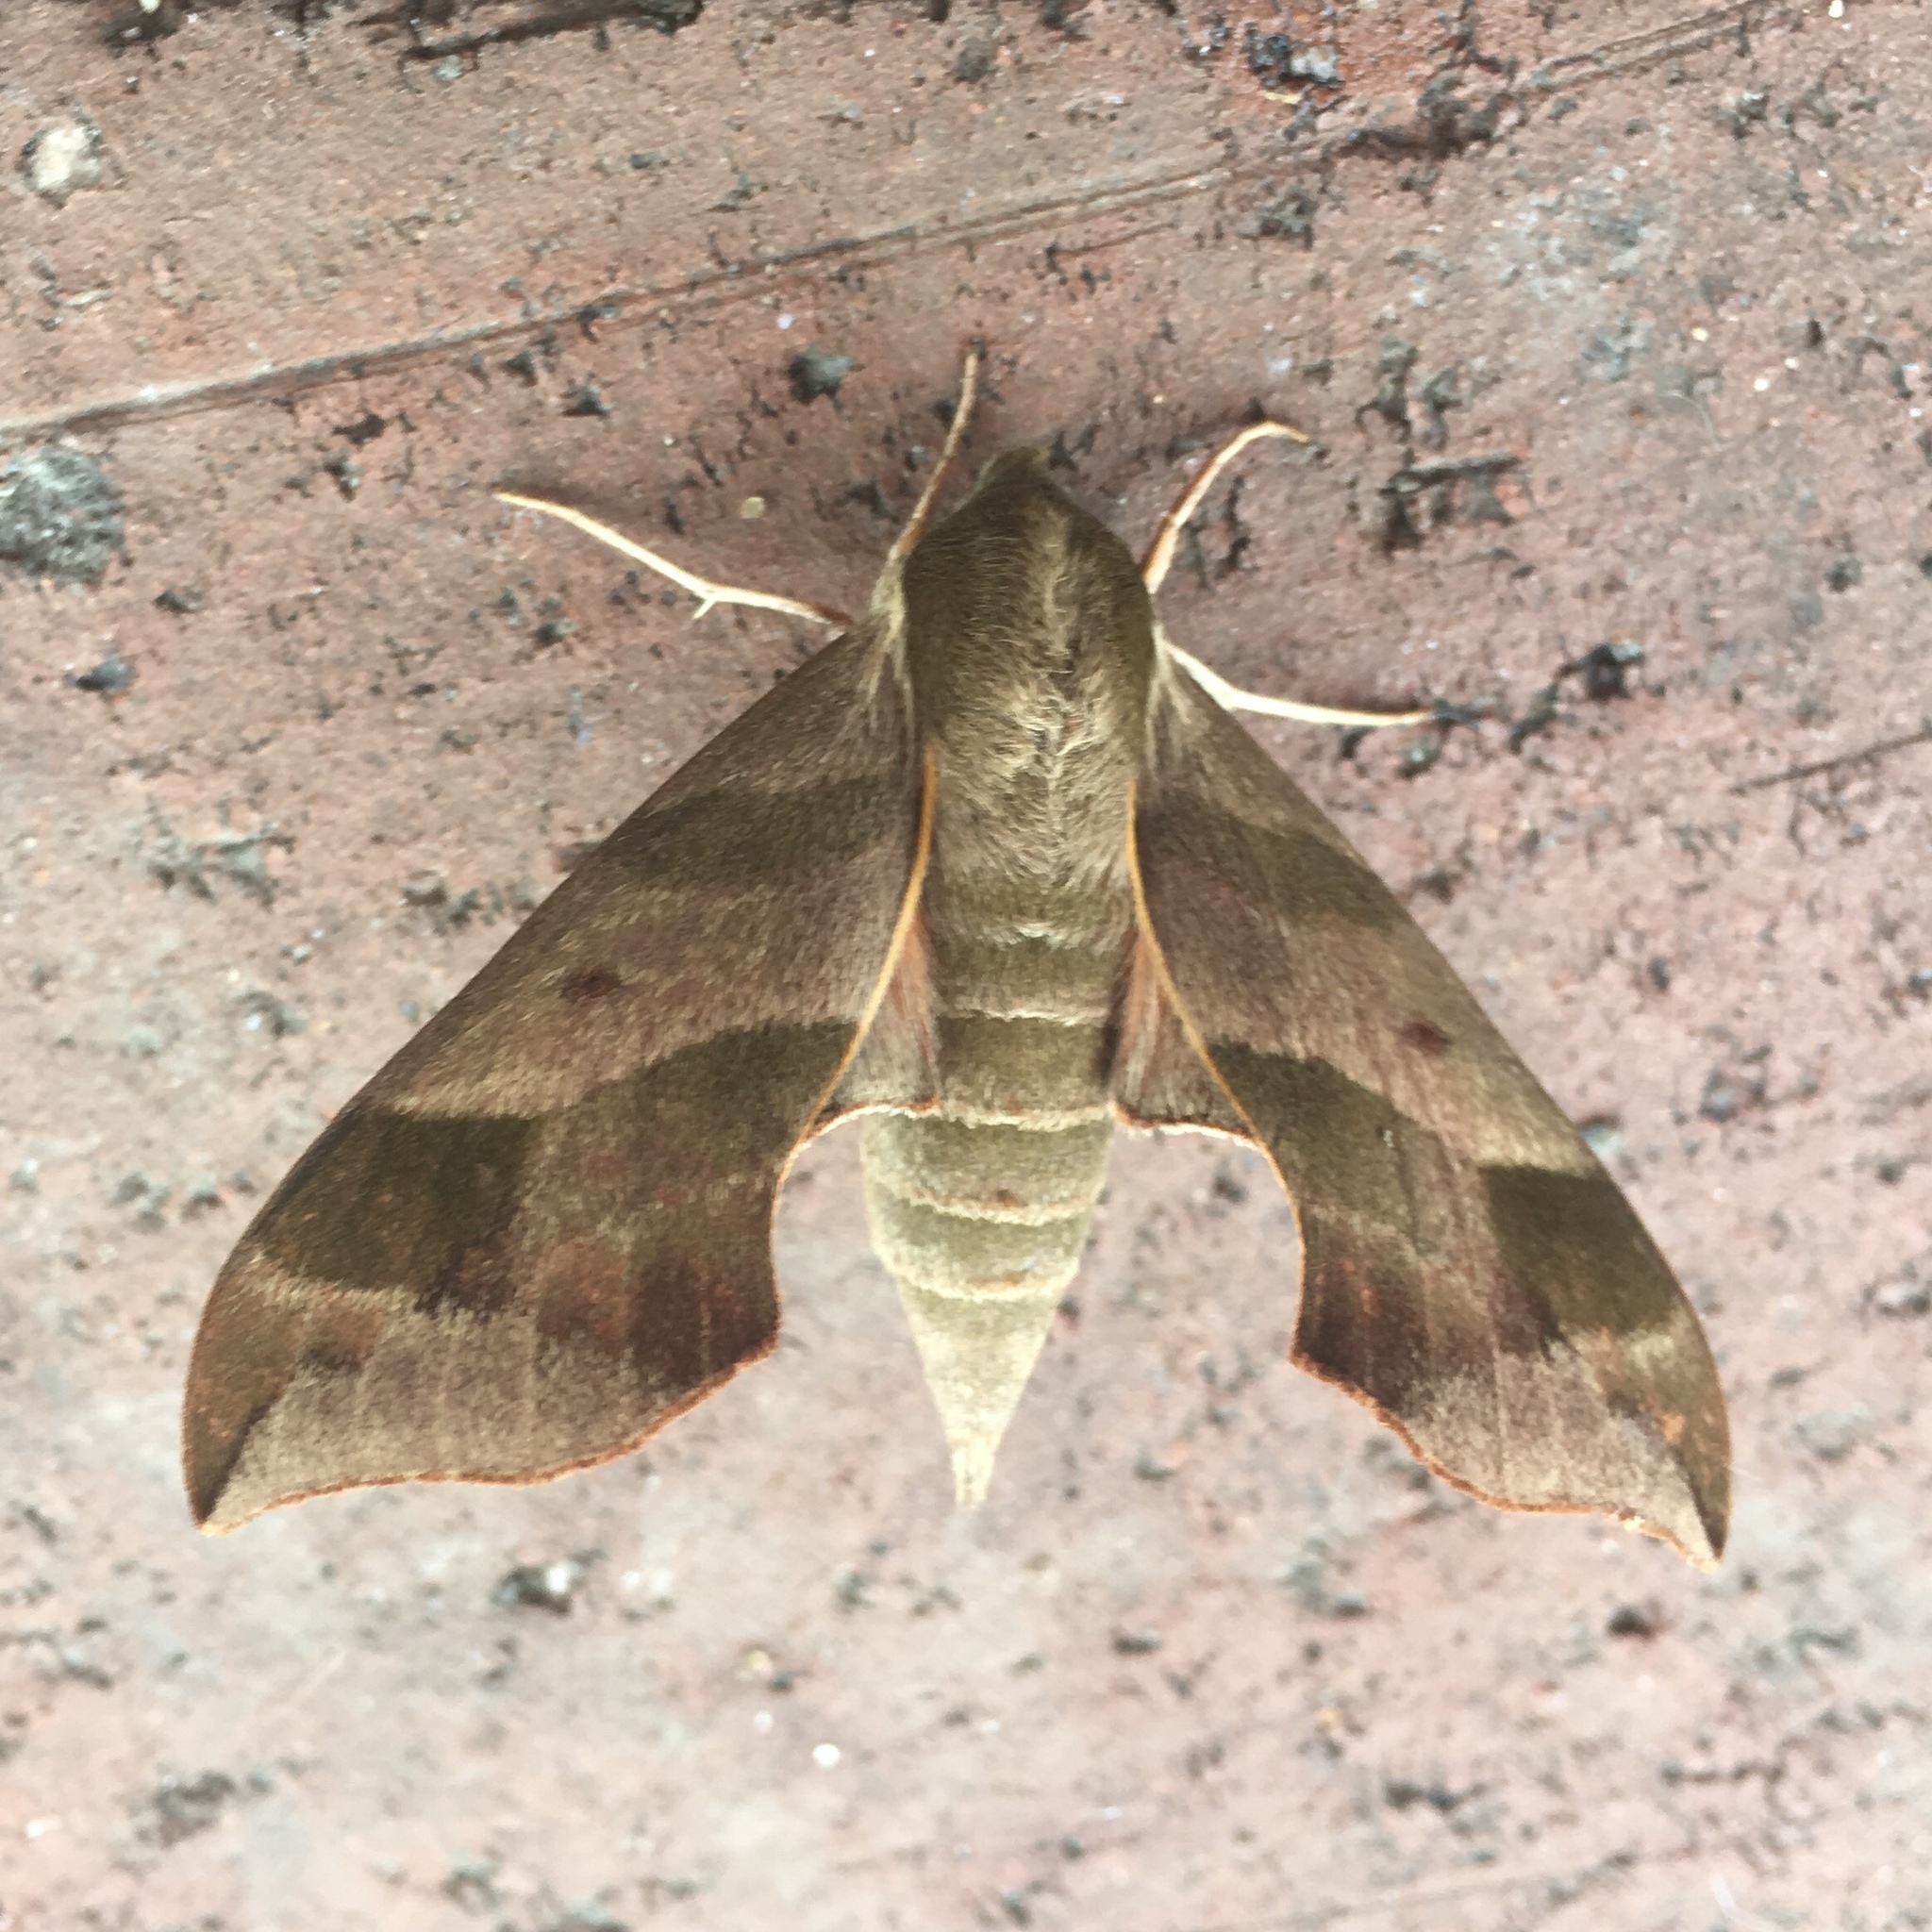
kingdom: Animalia
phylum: Arthropoda
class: Insecta
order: Lepidoptera
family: Sphingidae
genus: Darapsa
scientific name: Darapsa myron
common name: Hog sphinx
